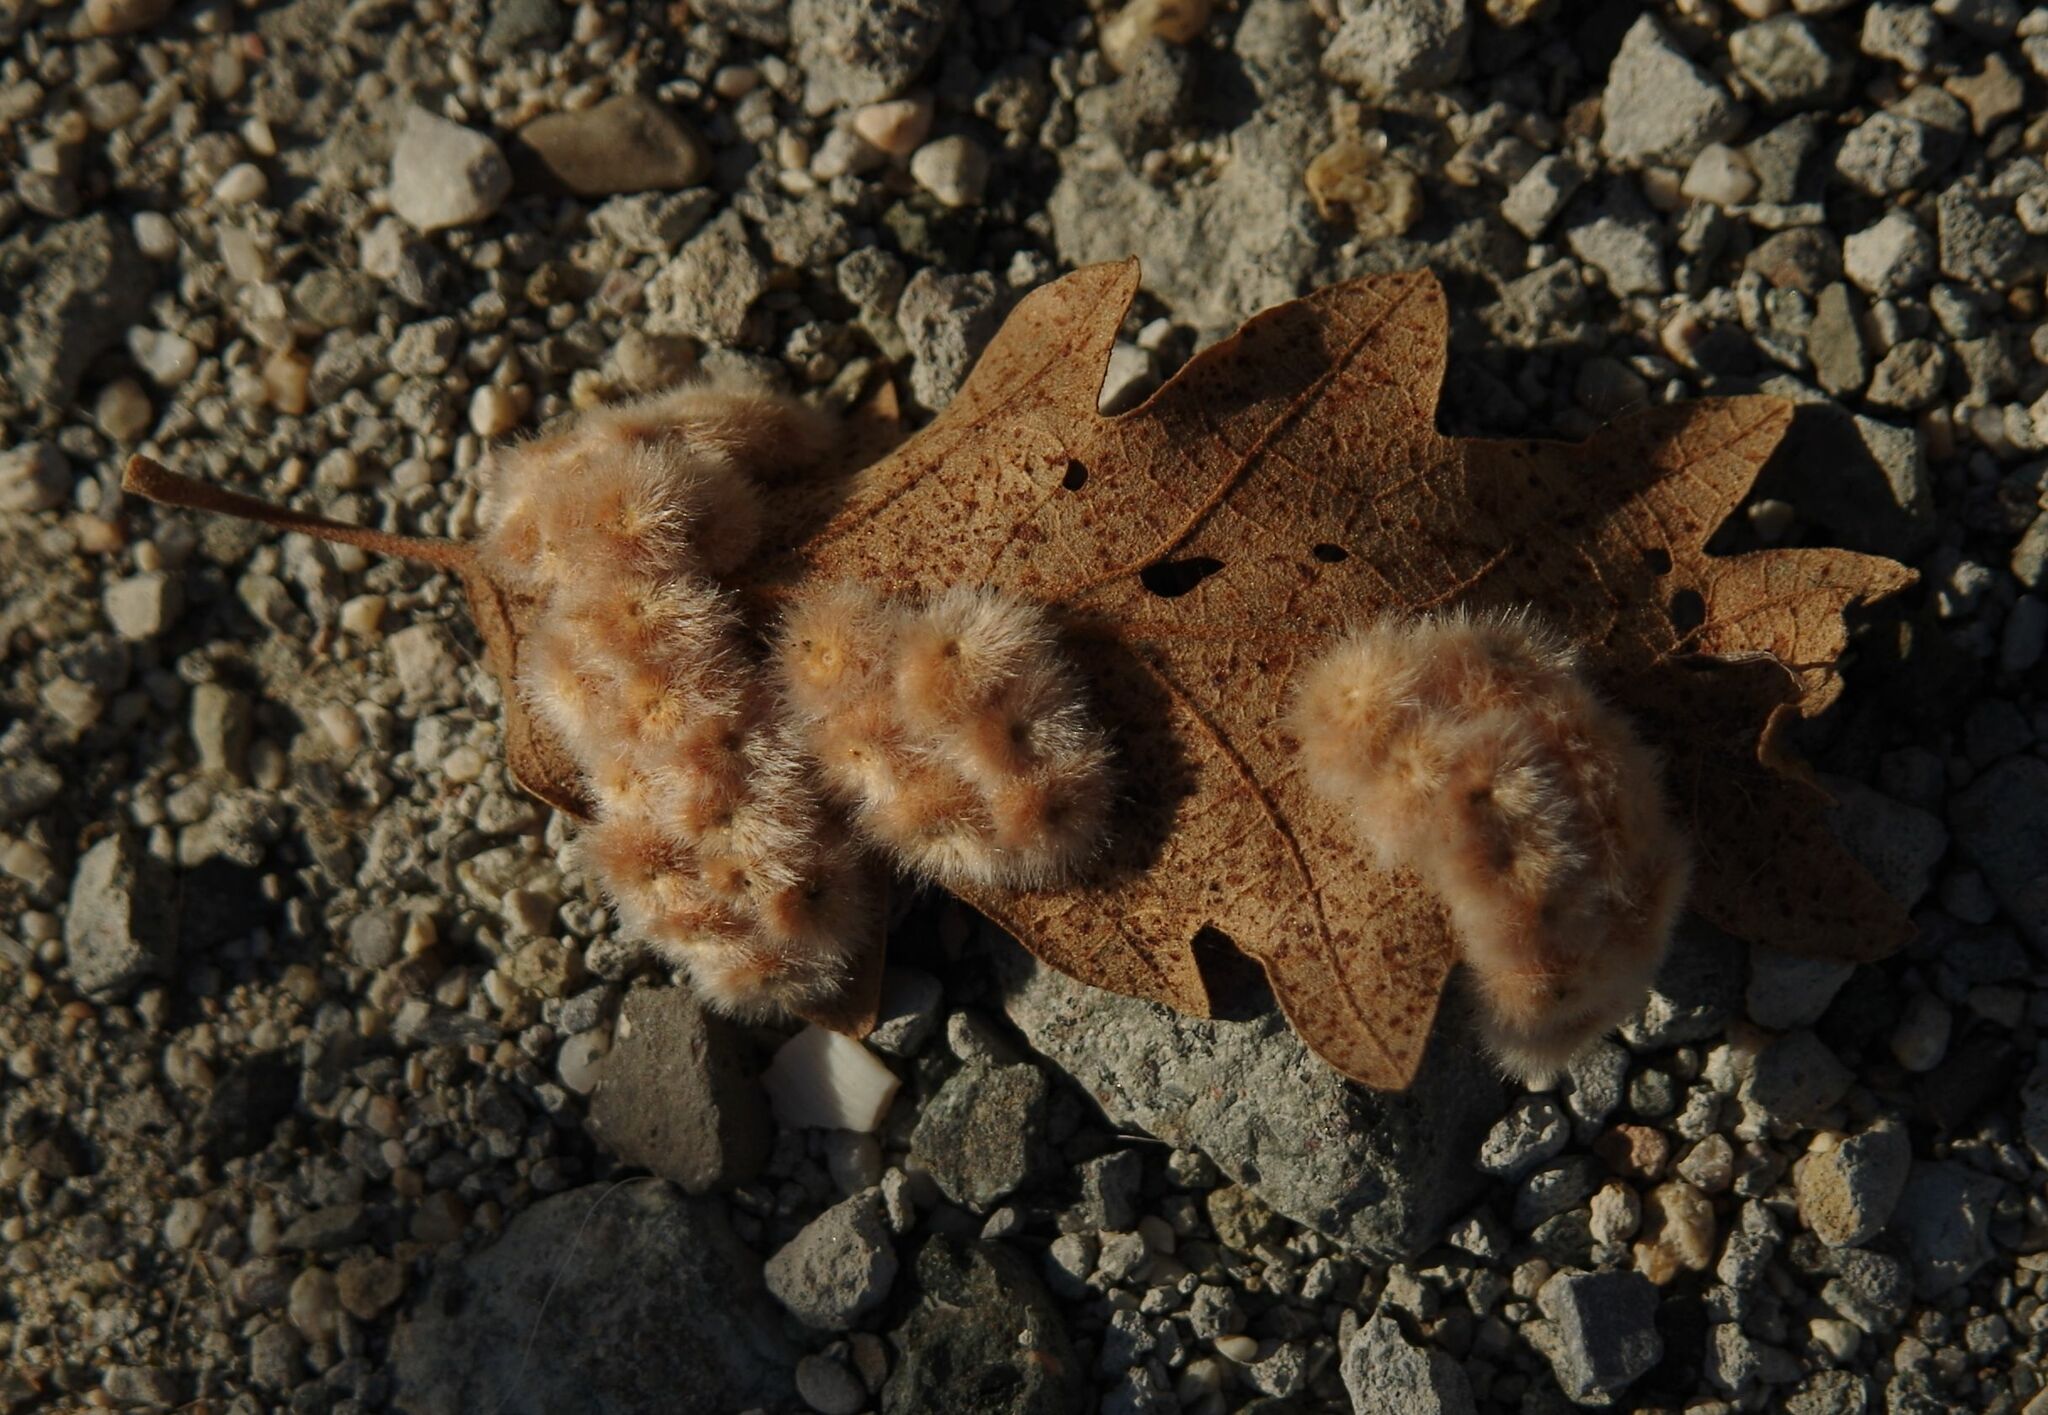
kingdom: Animalia
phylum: Arthropoda
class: Insecta
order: Hymenoptera
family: Cynipidae
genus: Neuroterus
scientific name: Neuroterus lanuginosus
